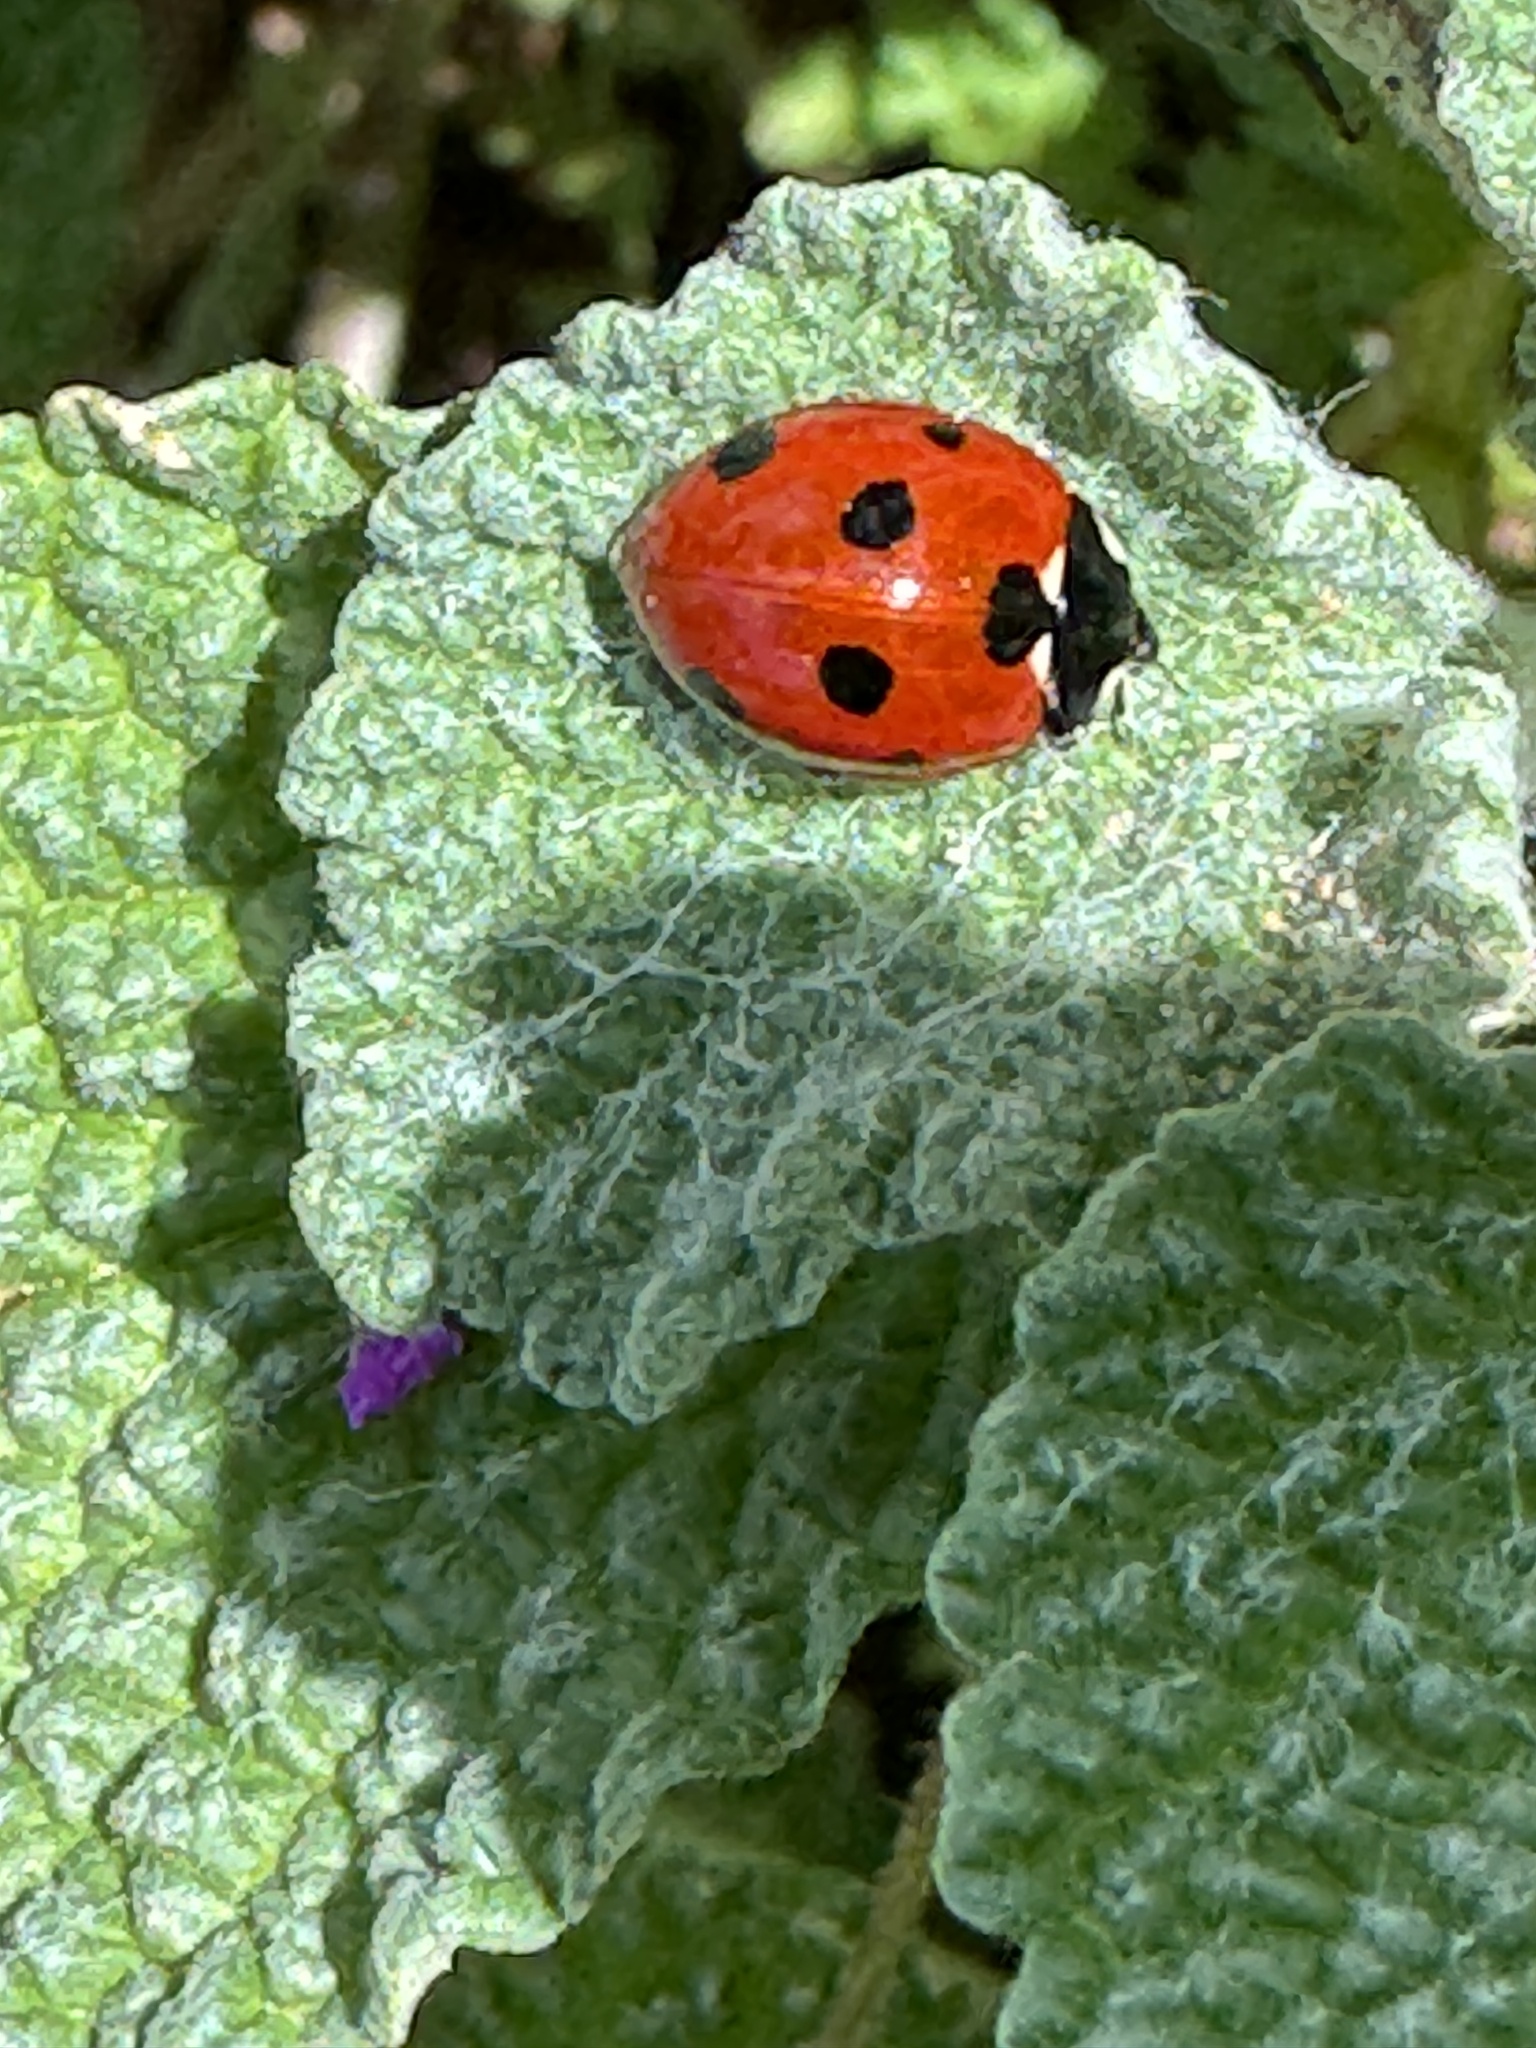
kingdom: Animalia
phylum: Arthropoda
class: Insecta
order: Coleoptera
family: Coccinellidae
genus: Coccinella
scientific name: Coccinella septempunctata
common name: Sevenspotted lady beetle
